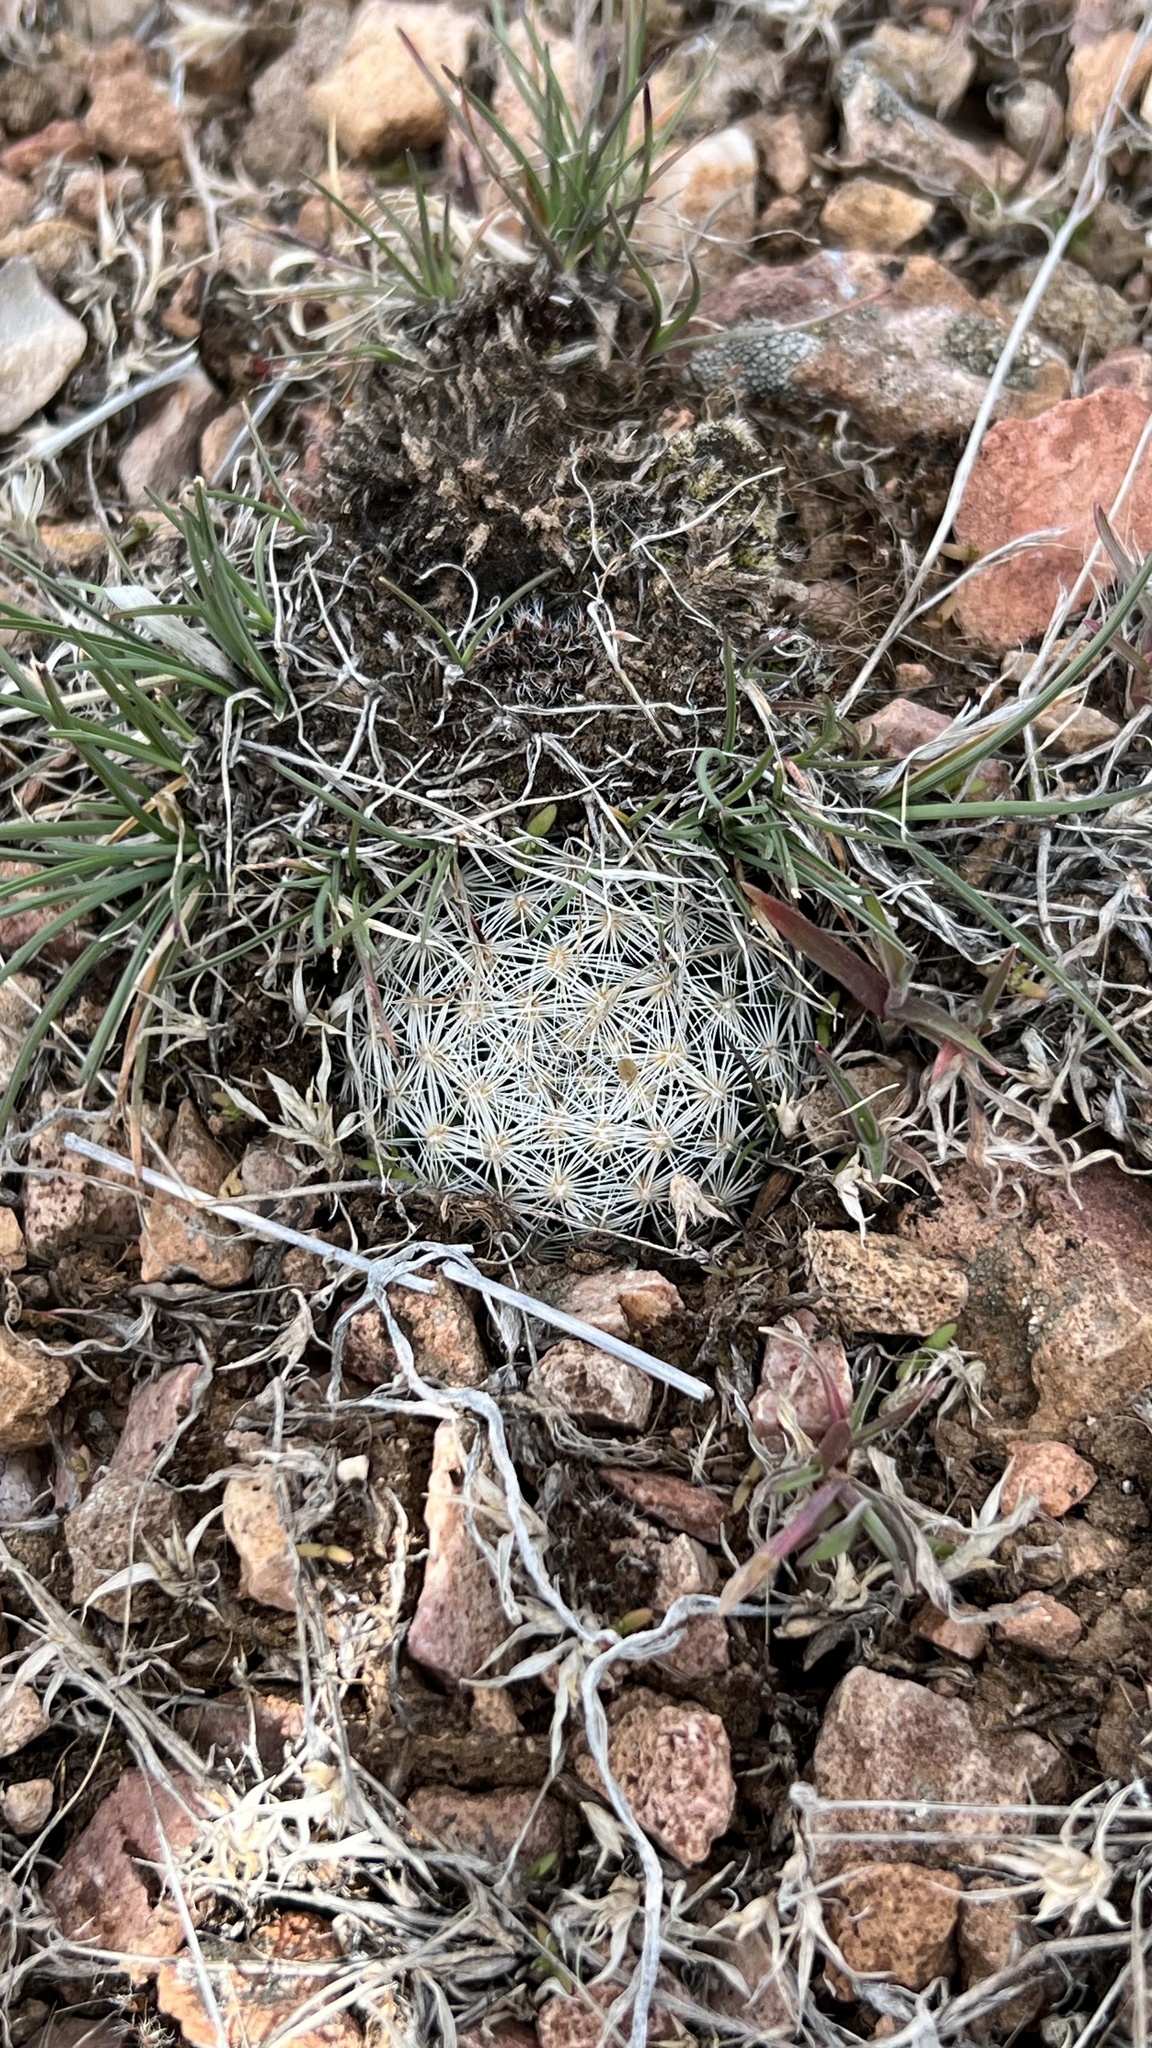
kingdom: Plantae
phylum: Tracheophyta
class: Magnoliopsida
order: Caryophyllales
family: Cactaceae
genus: Pelecyphora
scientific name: Pelecyphora vivipara
